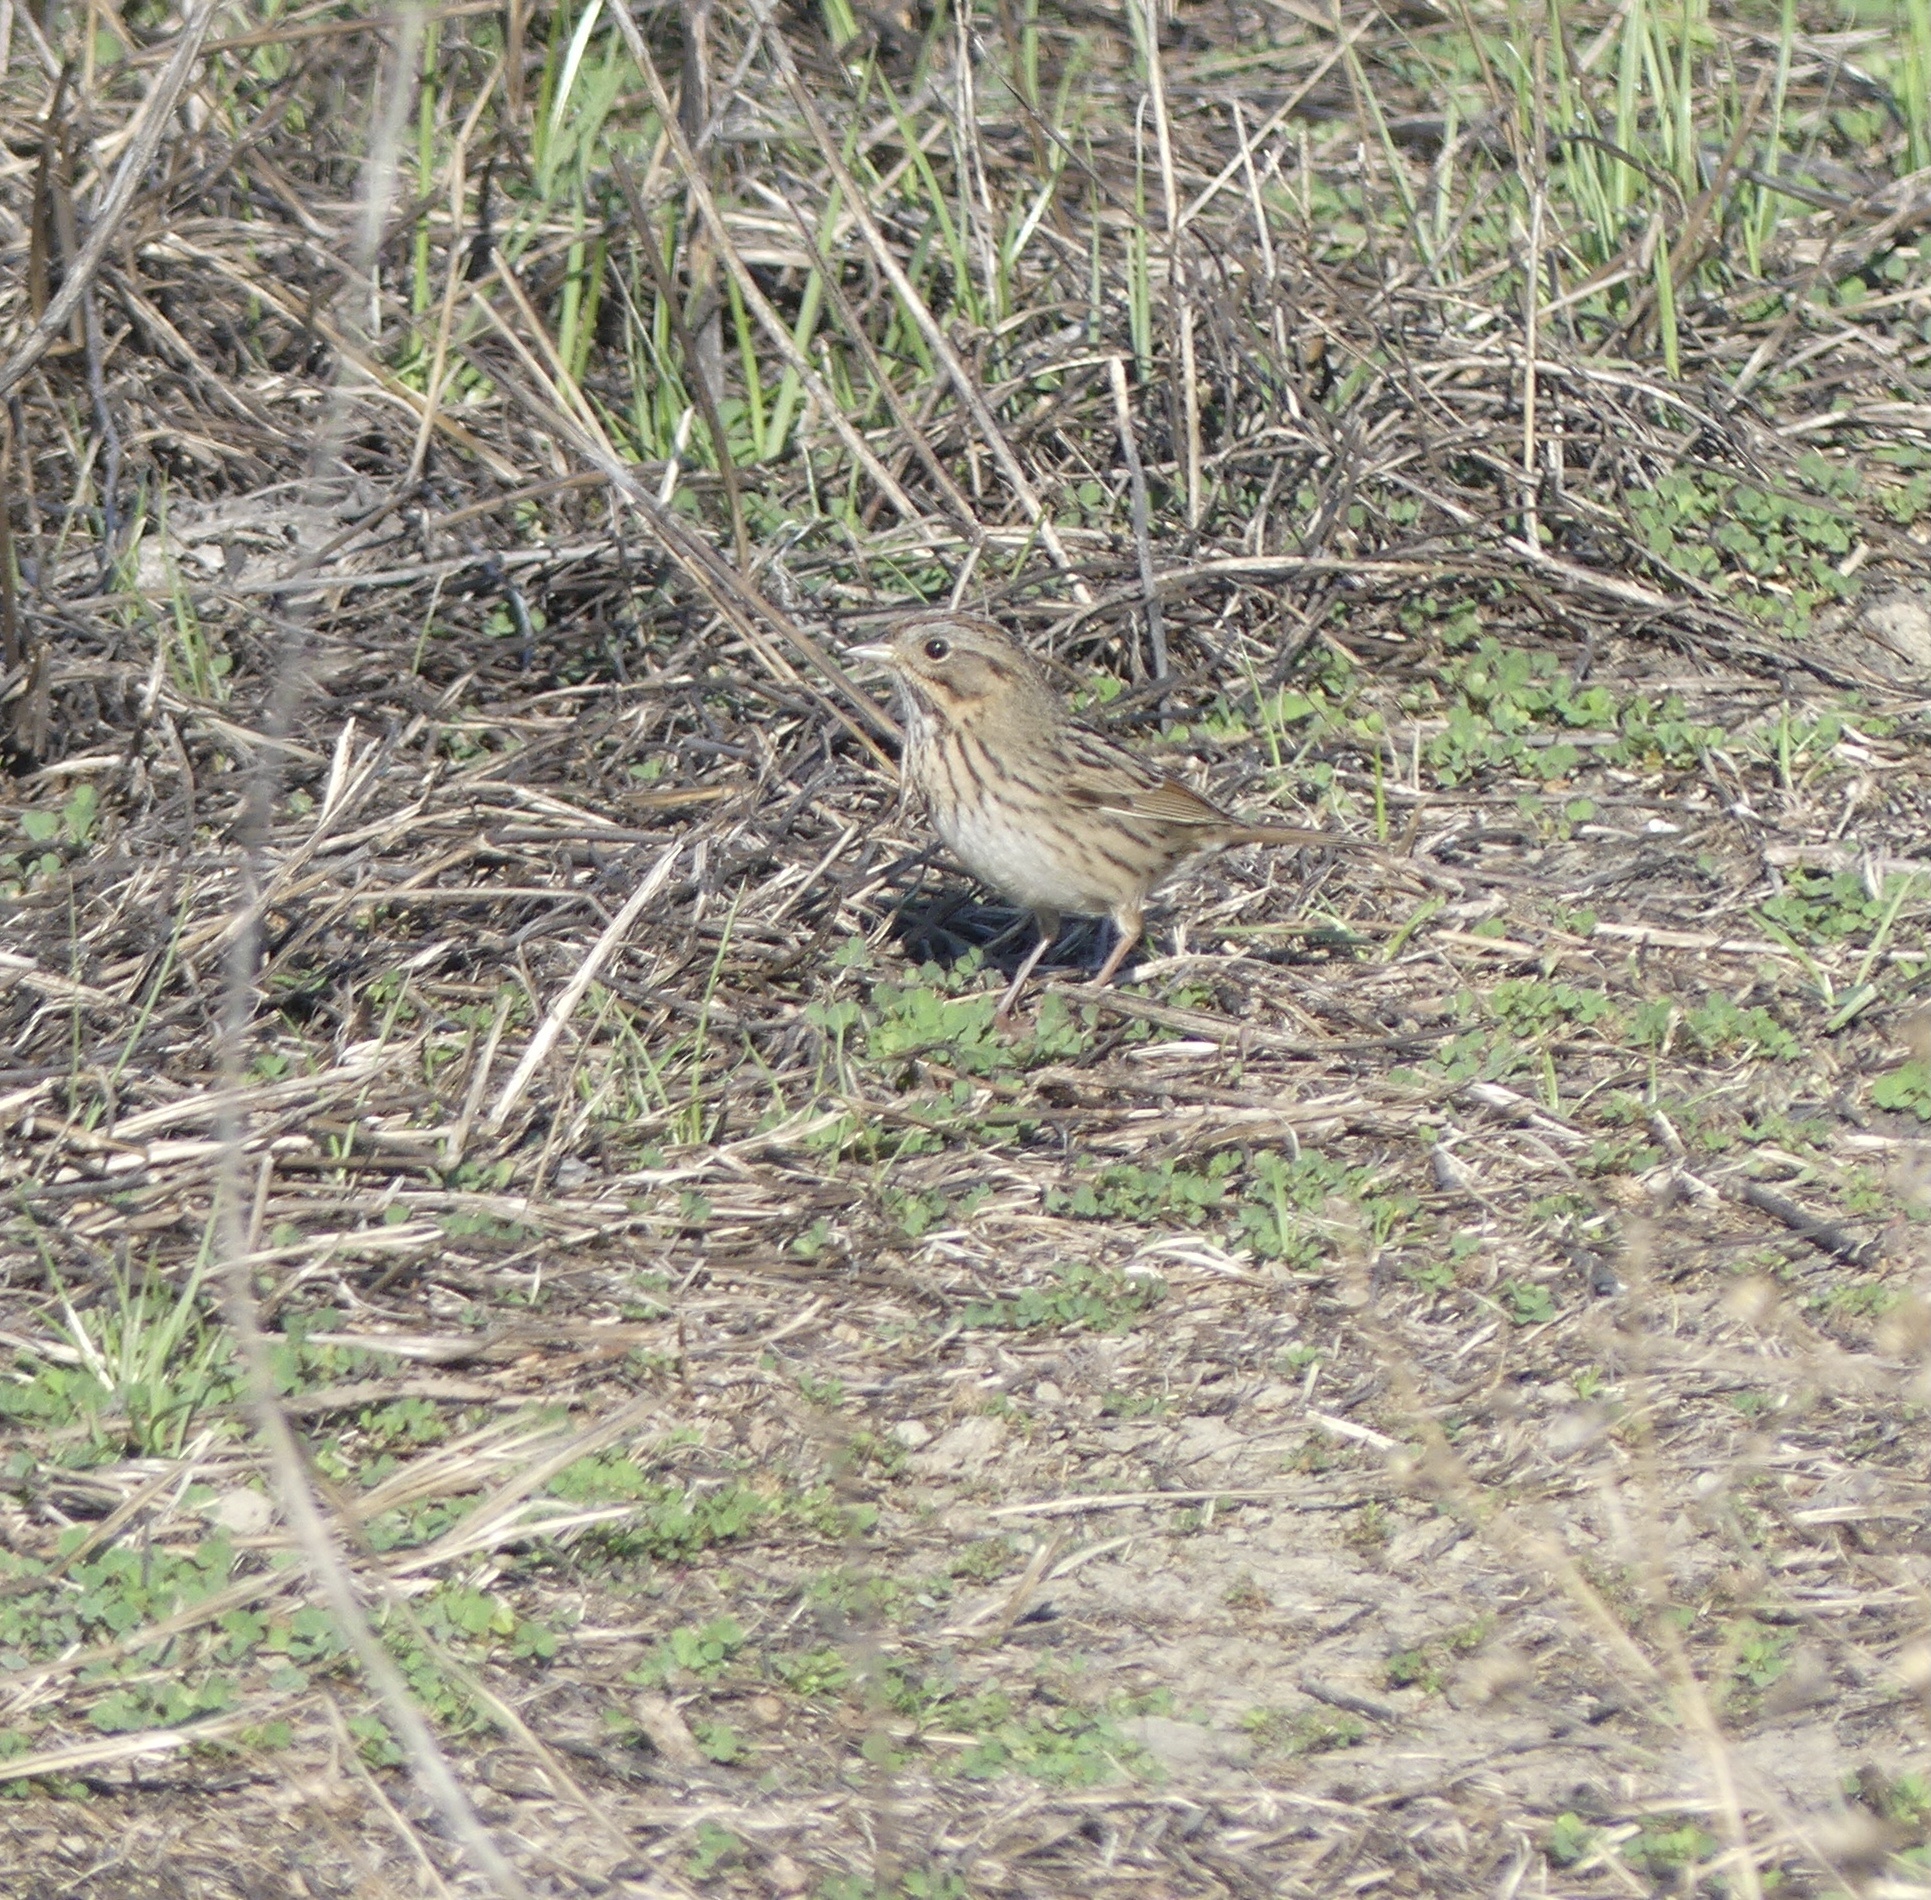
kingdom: Animalia
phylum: Chordata
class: Aves
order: Passeriformes
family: Passerellidae
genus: Melospiza
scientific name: Melospiza lincolnii
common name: Lincoln's sparrow
